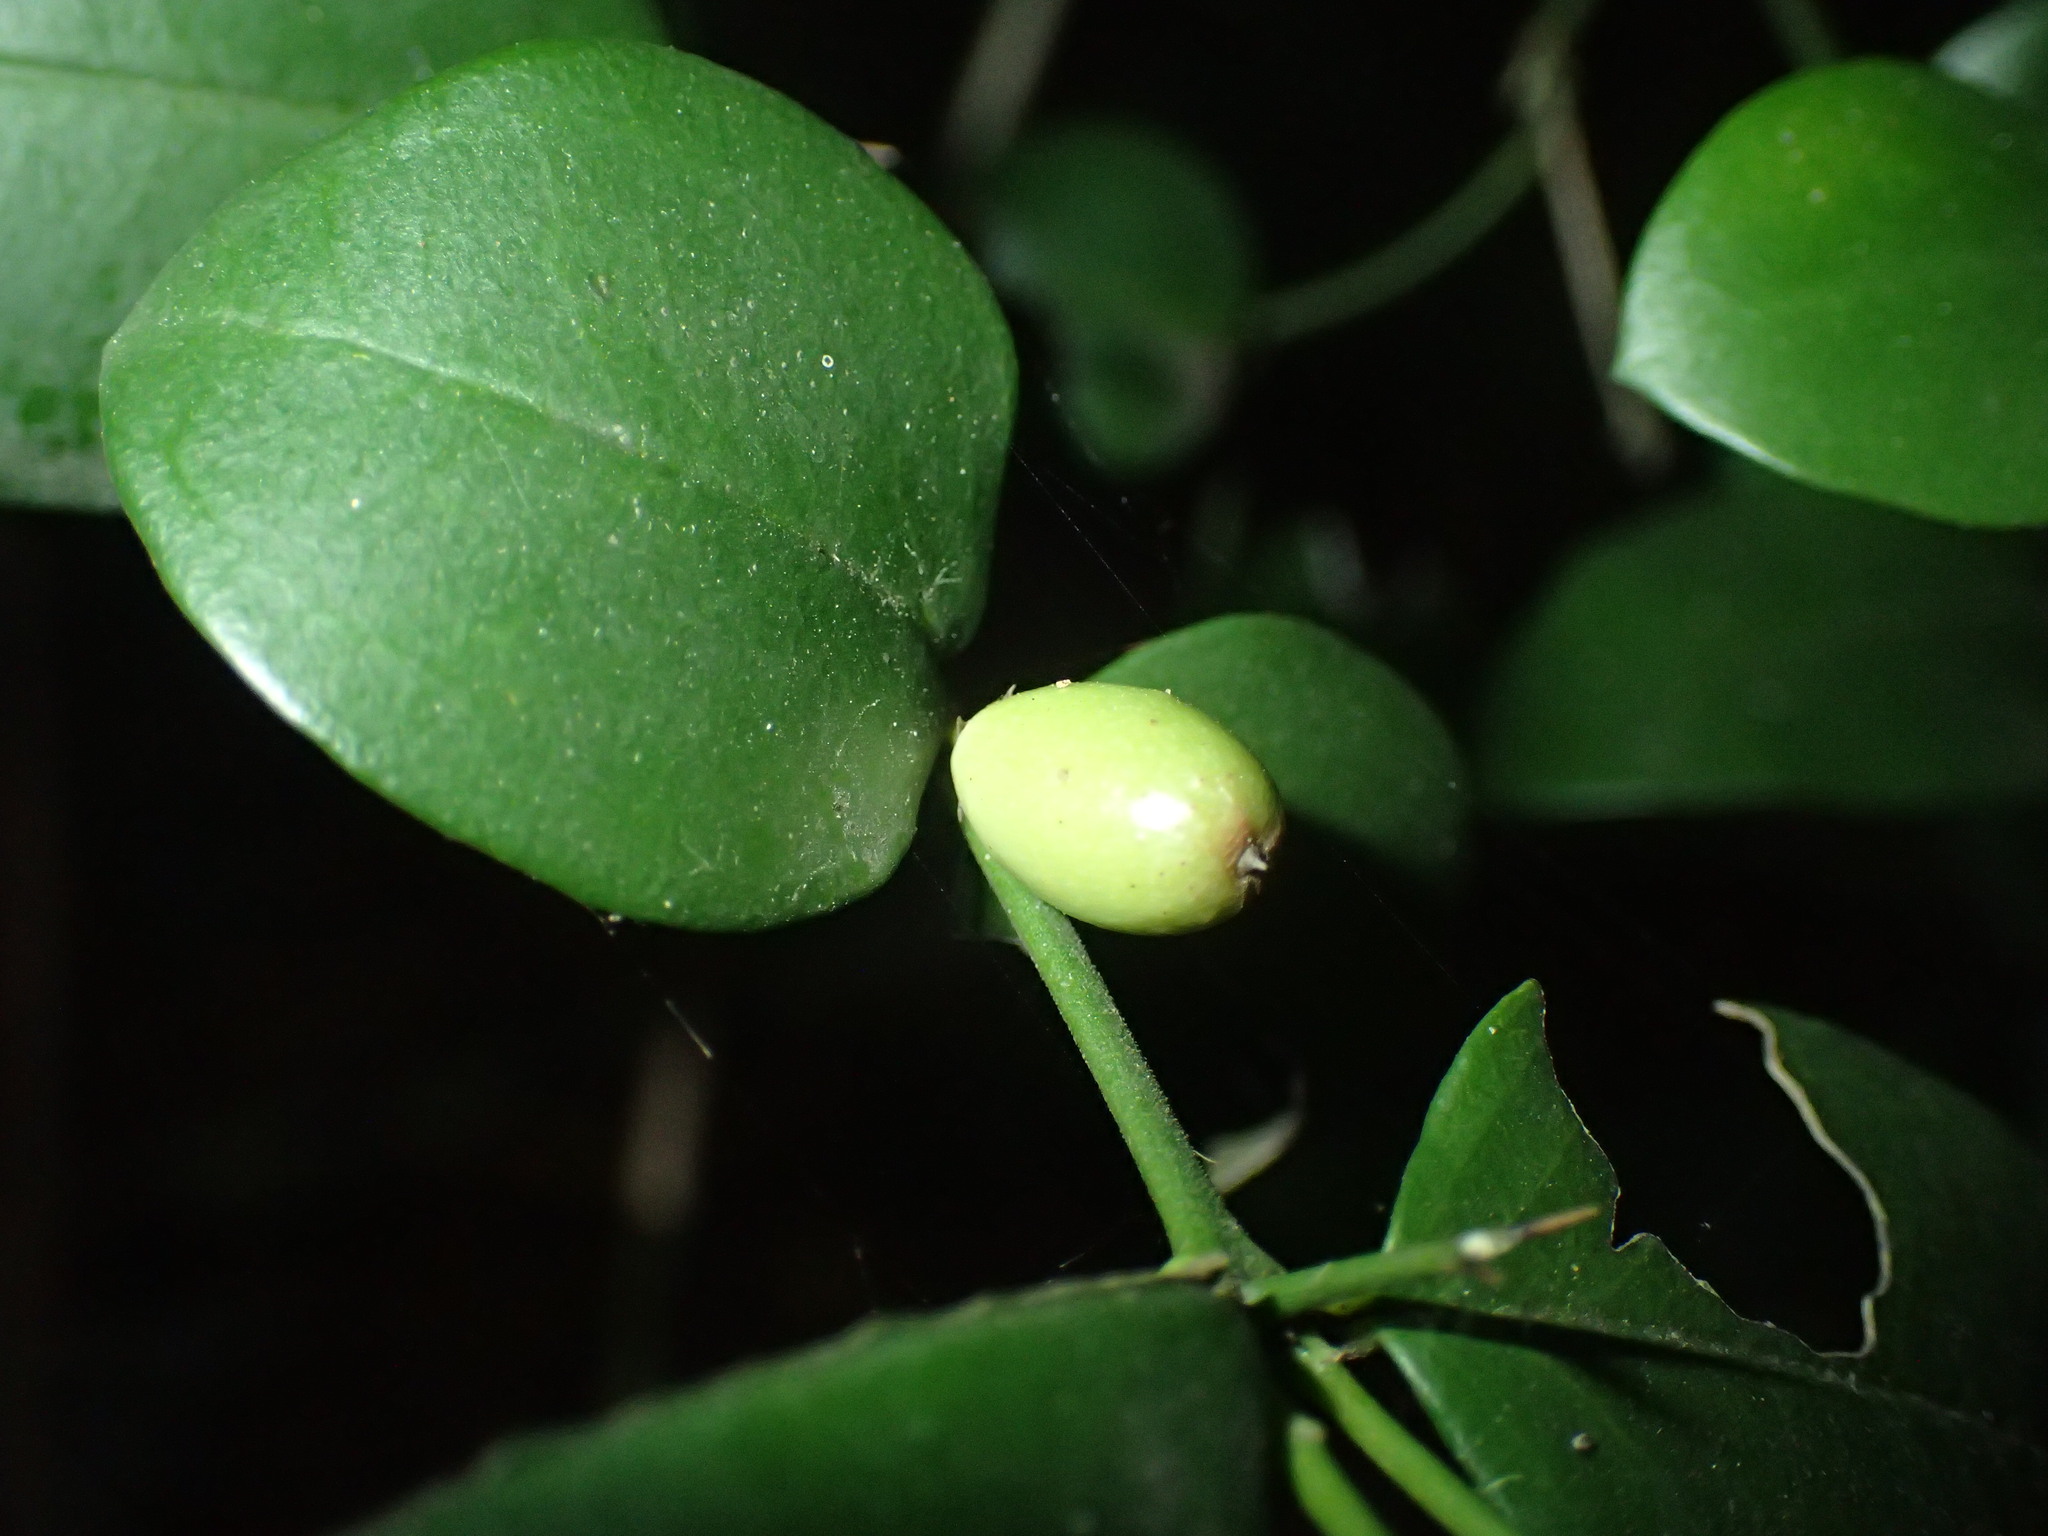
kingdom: Plantae
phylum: Tracheophyta
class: Magnoliopsida
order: Gentianales
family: Apocynaceae
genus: Carissa
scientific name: Carissa bispinosa
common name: Forest num-num
